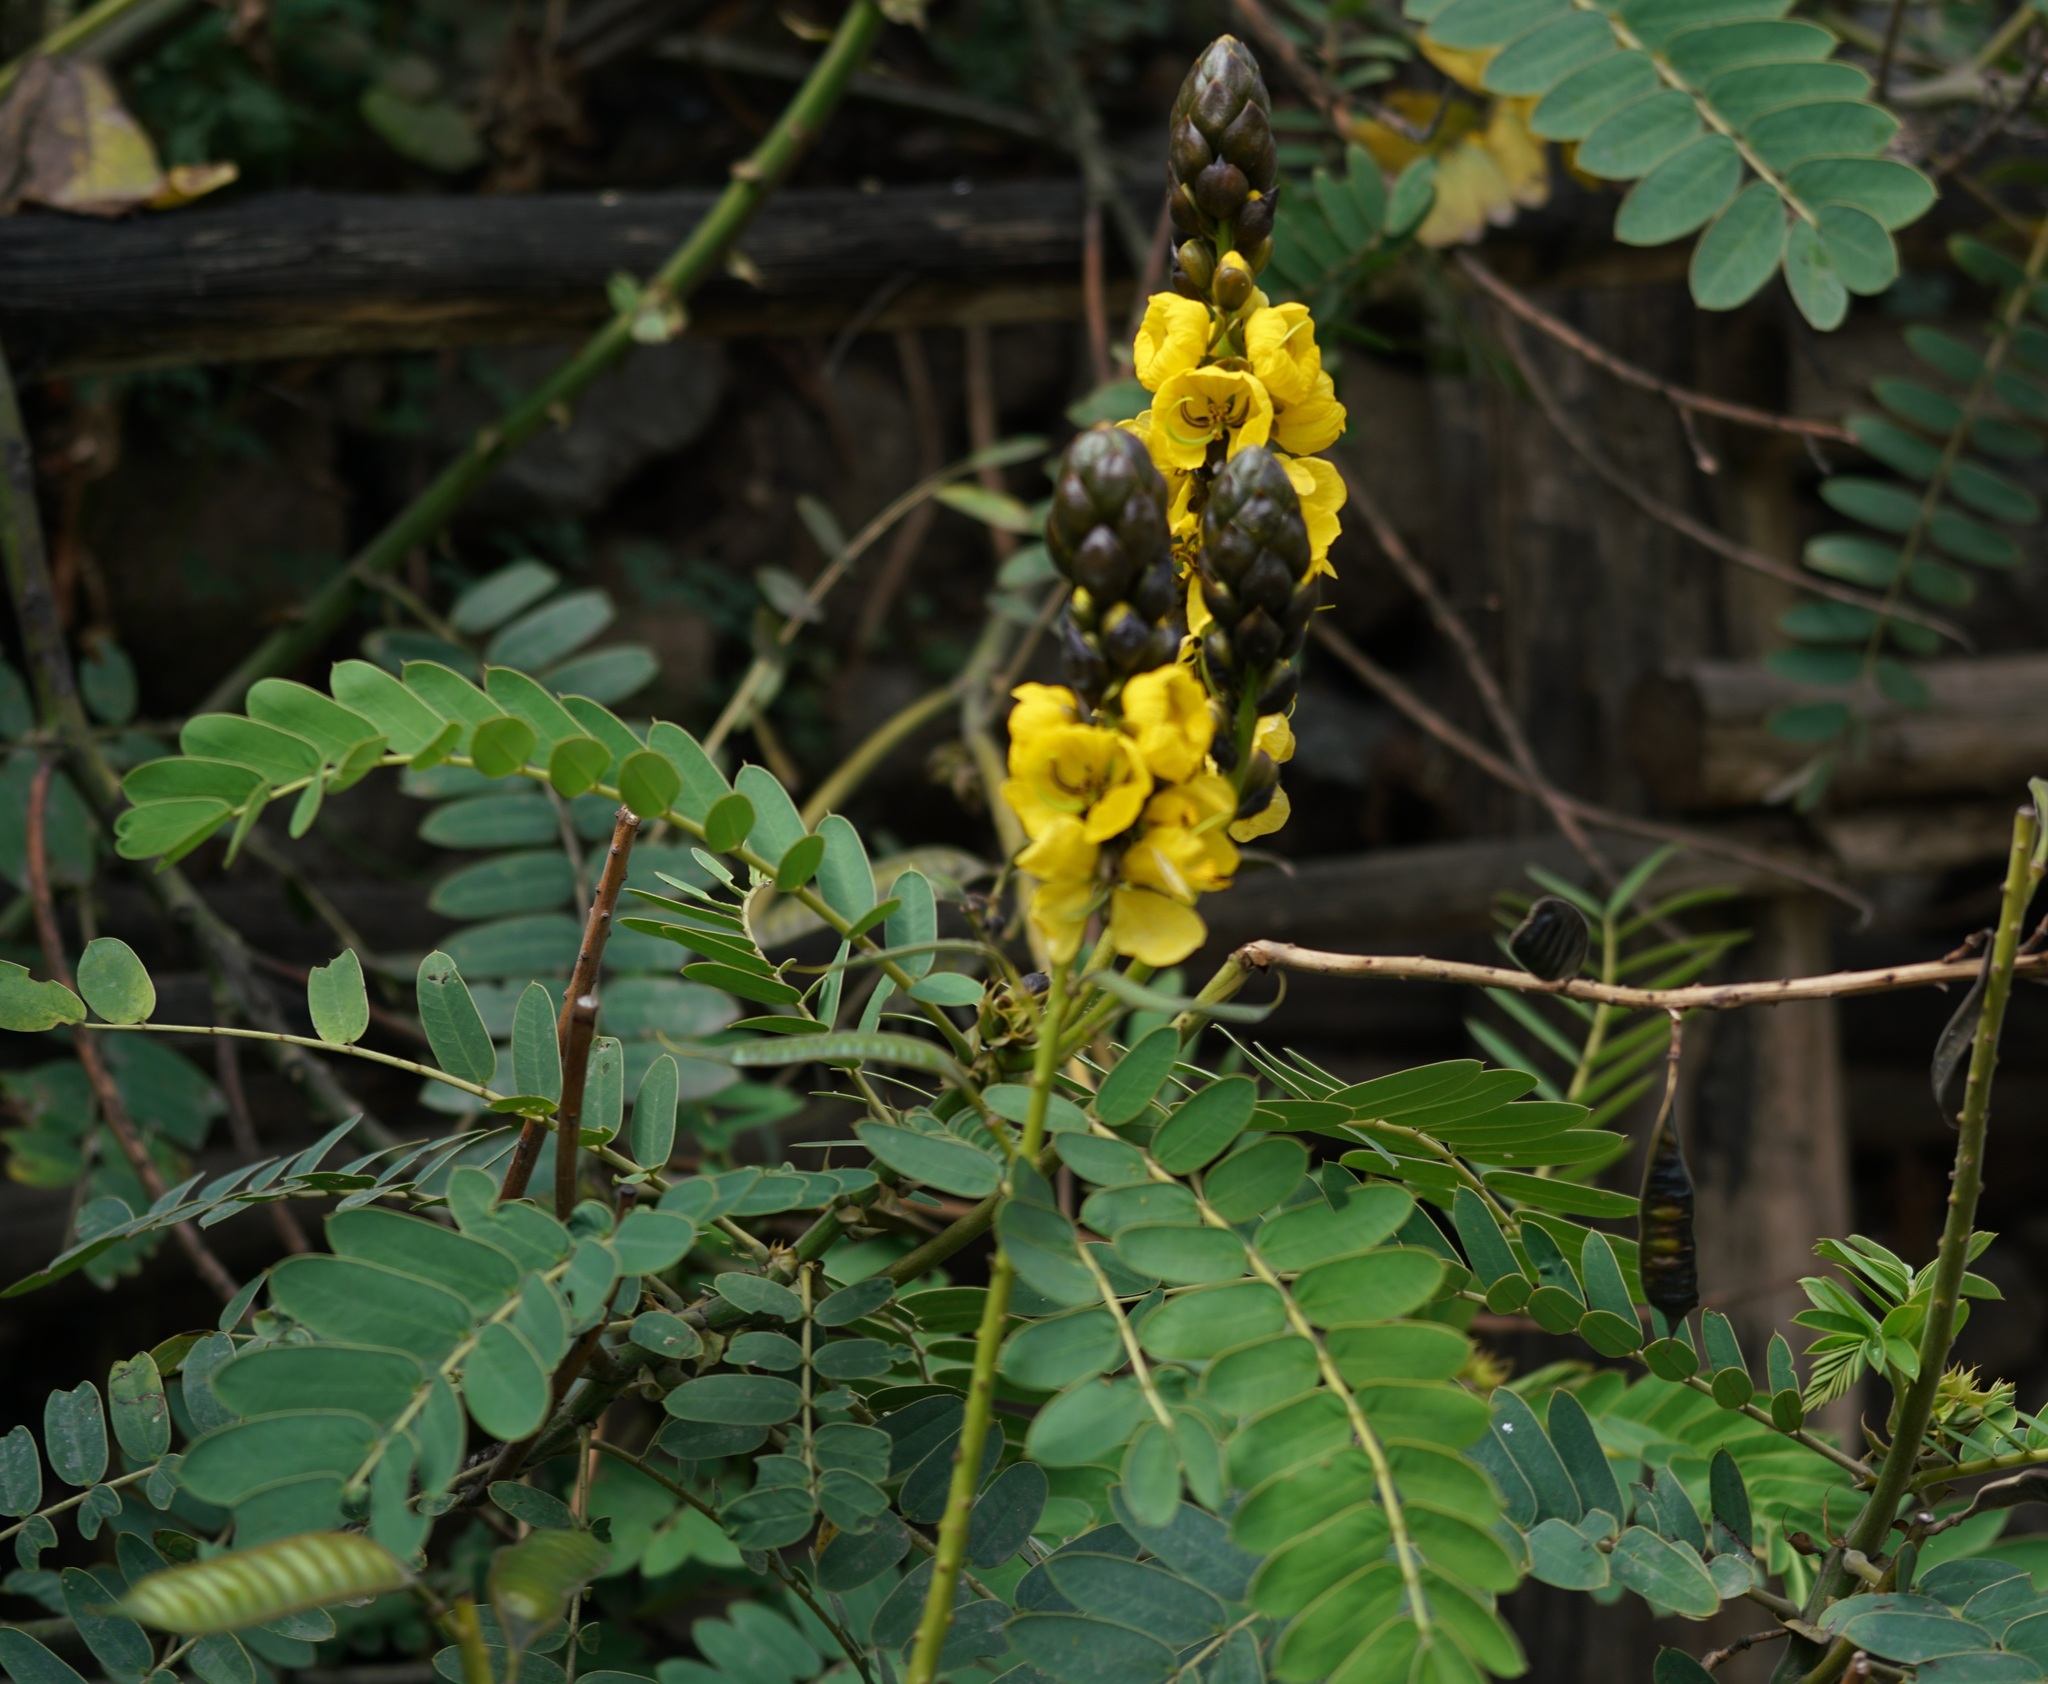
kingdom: Plantae
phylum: Tracheophyta
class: Magnoliopsida
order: Fabales
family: Fabaceae
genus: Senna
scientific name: Senna didymobotrya
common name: African senna
